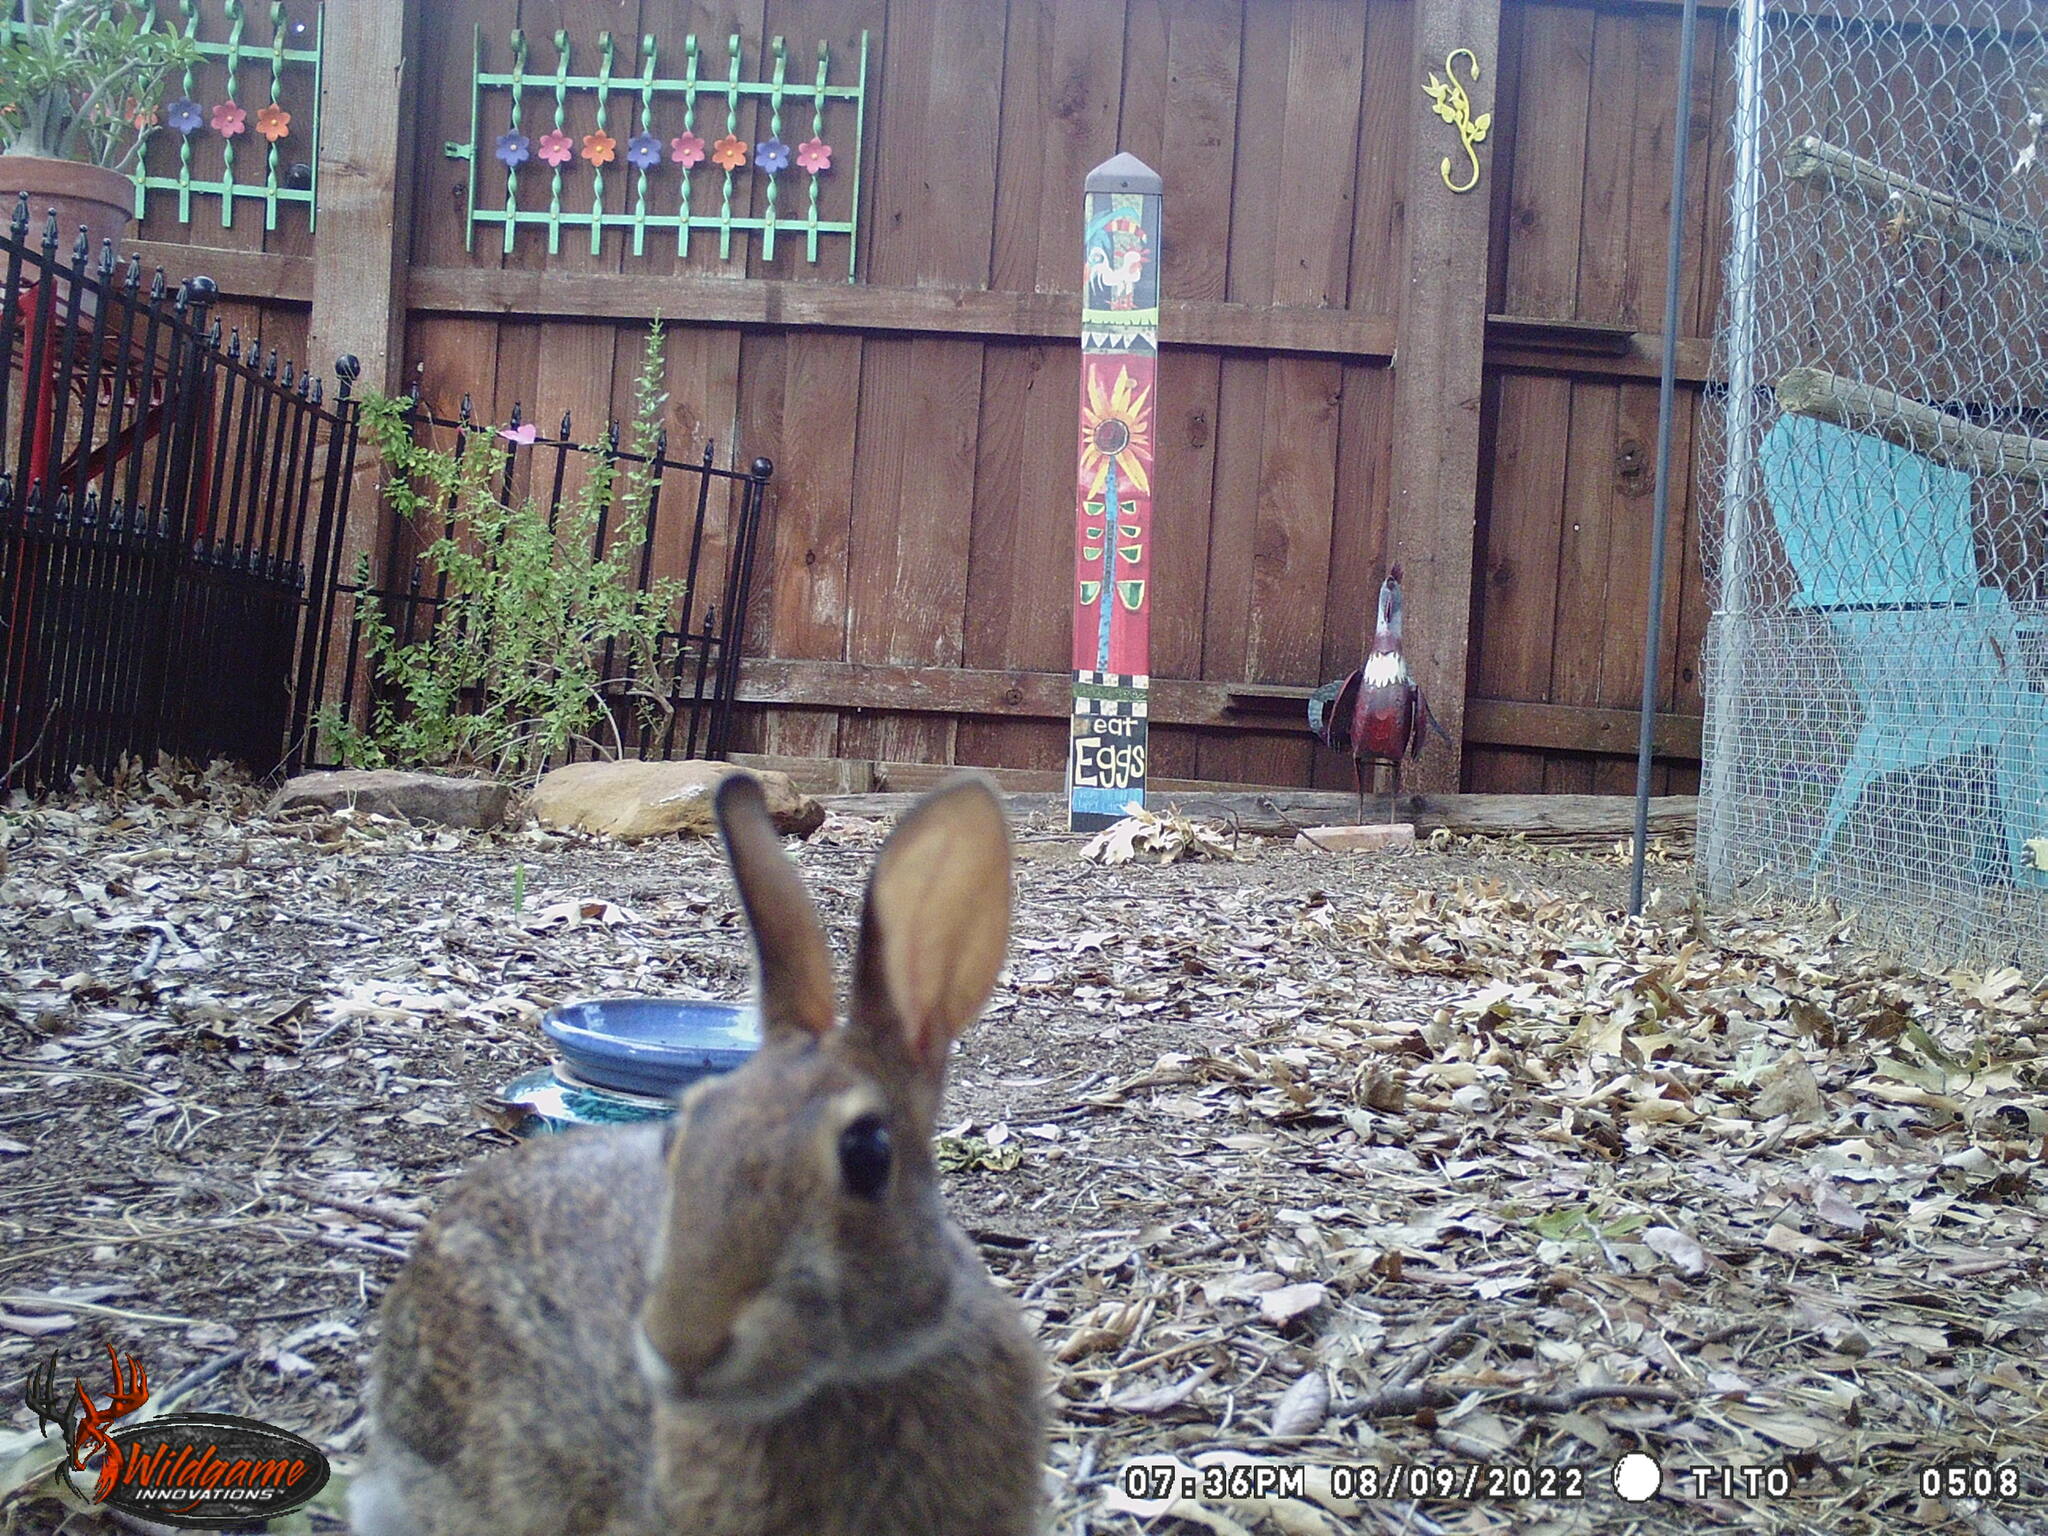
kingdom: Animalia
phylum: Chordata
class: Mammalia
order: Lagomorpha
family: Leporidae
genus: Sylvilagus
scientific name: Sylvilagus floridanus
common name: Eastern cottontail
